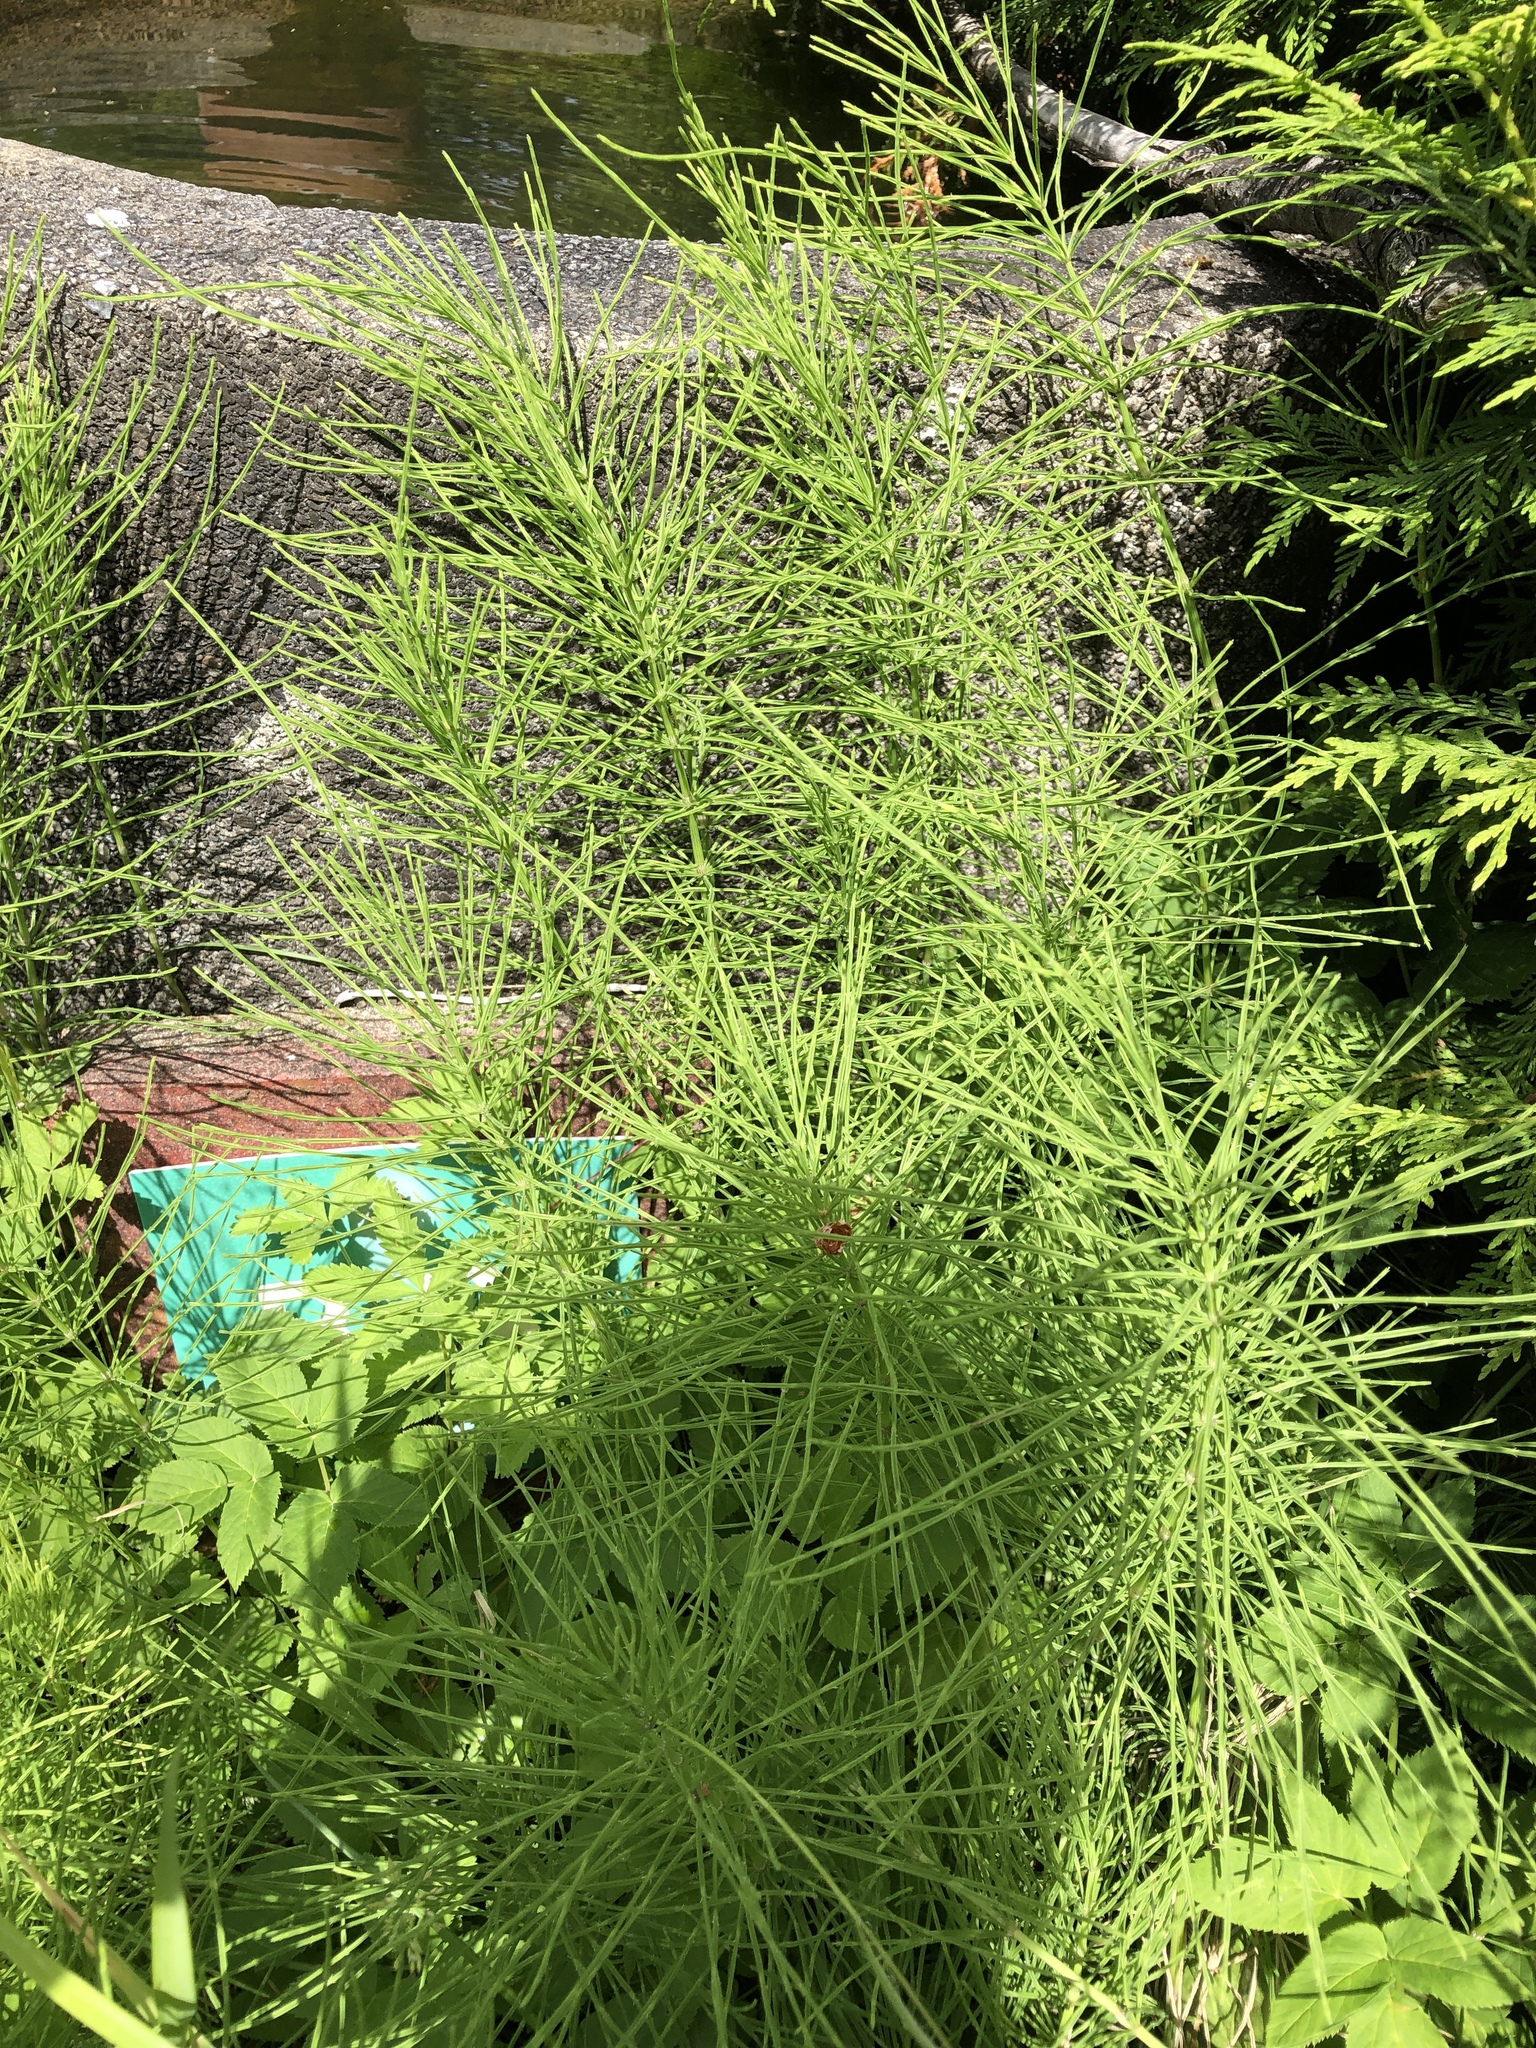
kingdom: Plantae
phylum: Tracheophyta
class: Polypodiopsida
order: Equisetales
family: Equisetaceae
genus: Equisetum
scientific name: Equisetum arvense
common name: Field horsetail
